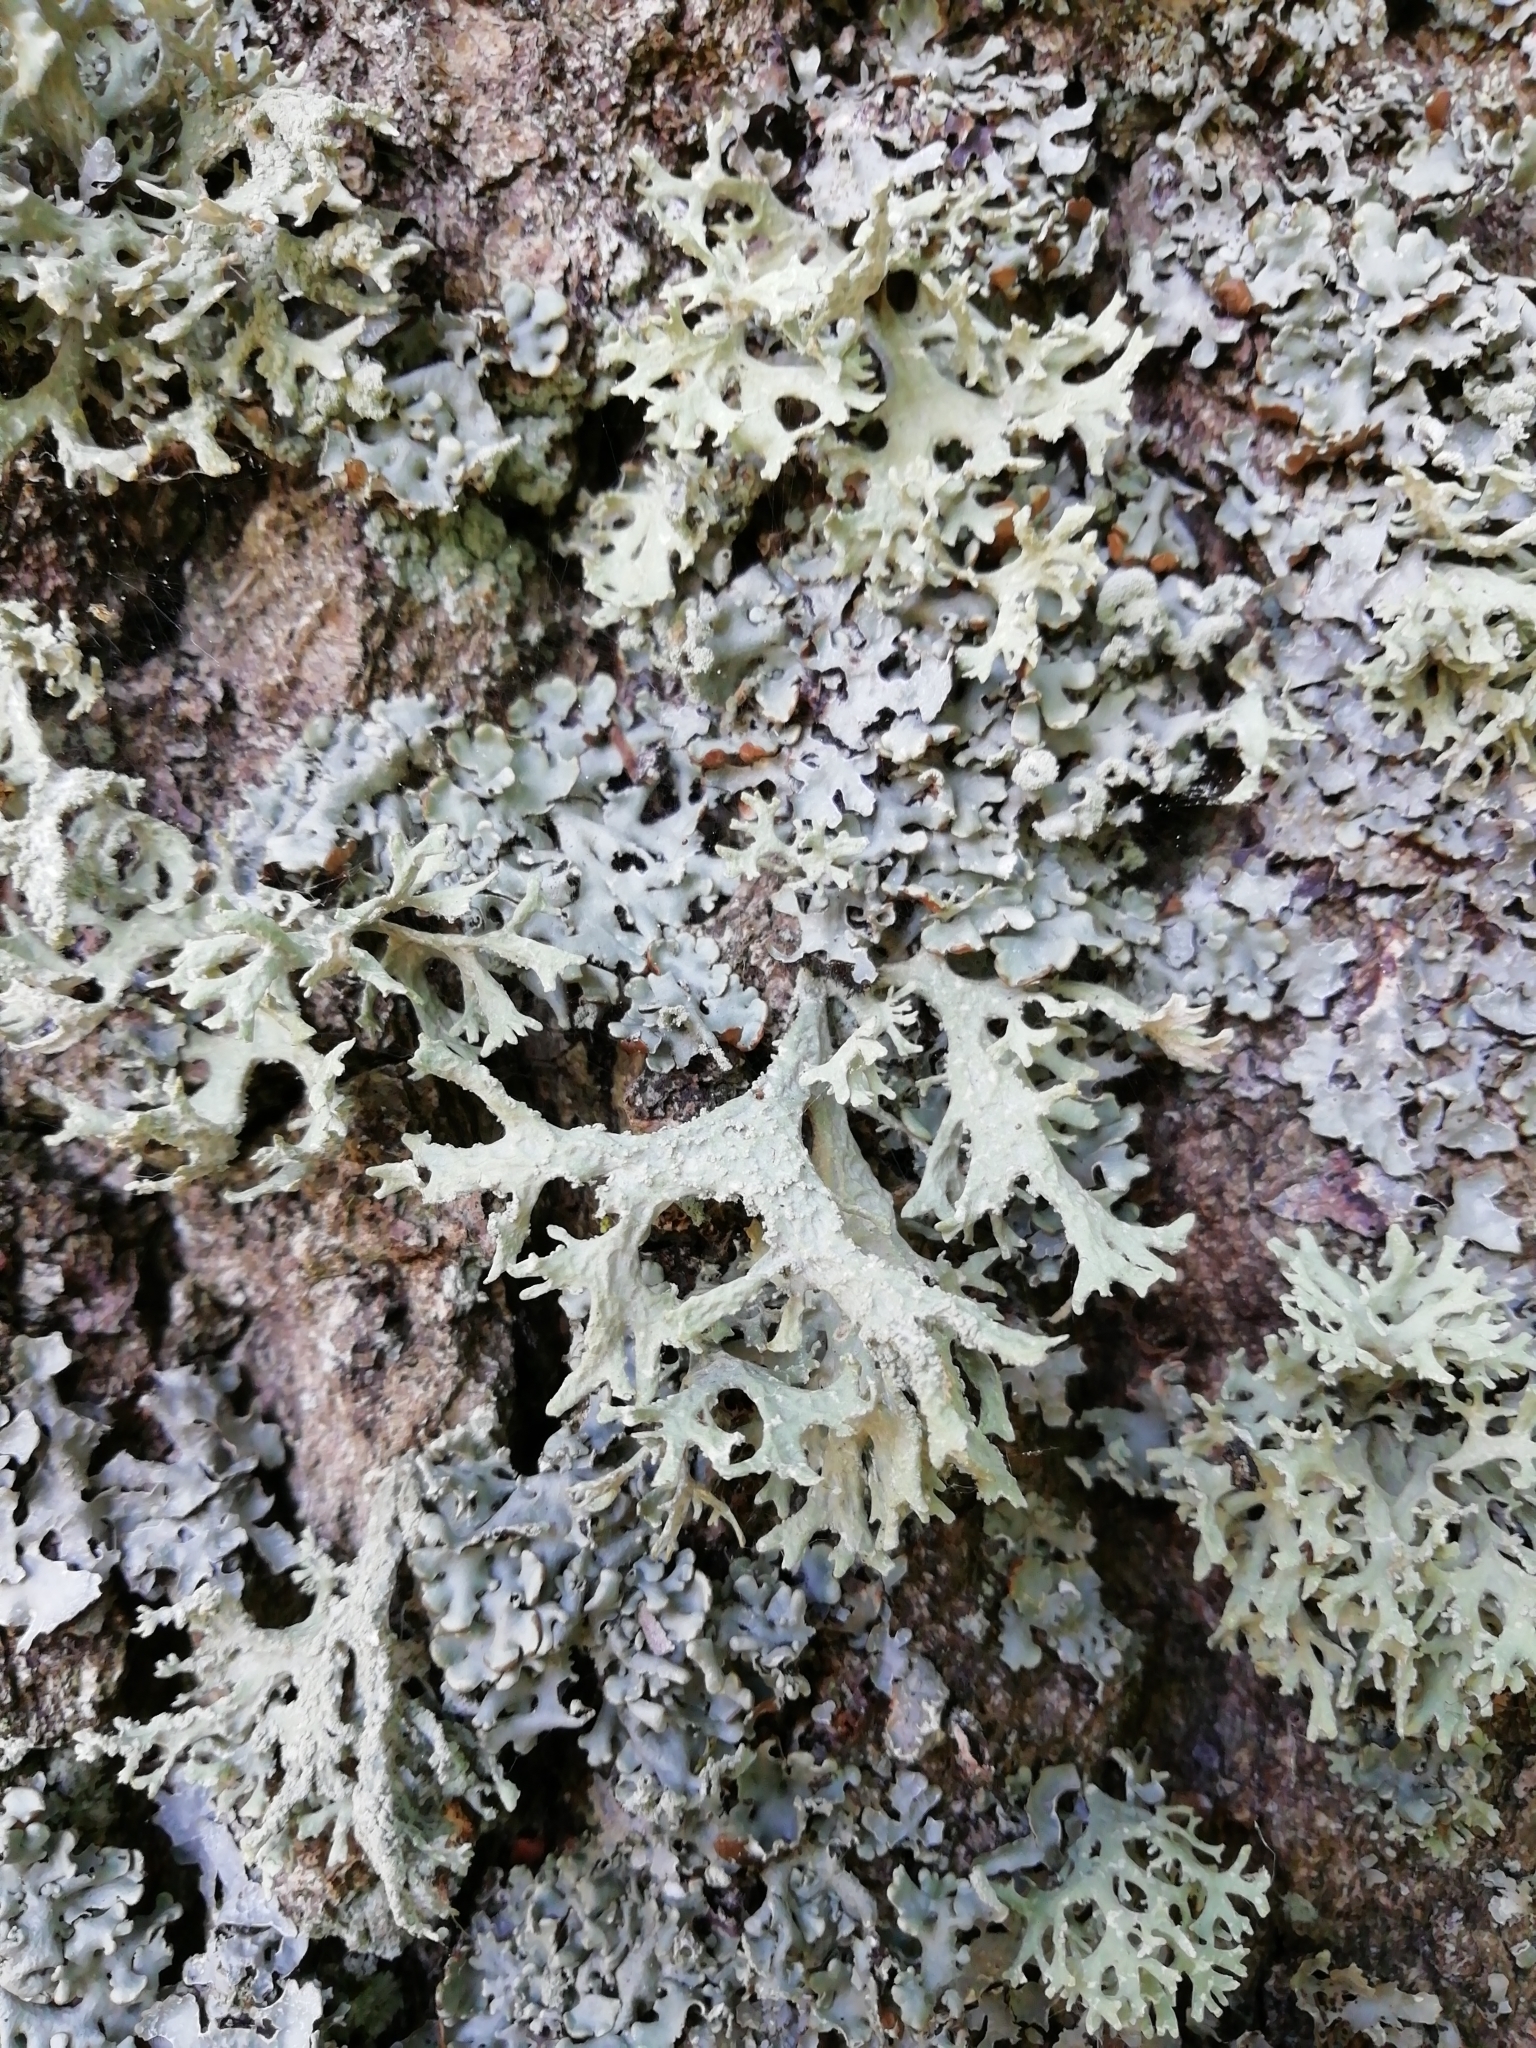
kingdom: Fungi
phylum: Ascomycota
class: Lecanoromycetes
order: Lecanorales
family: Parmeliaceae
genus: Evernia
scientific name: Evernia prunastri
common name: Oak moss
